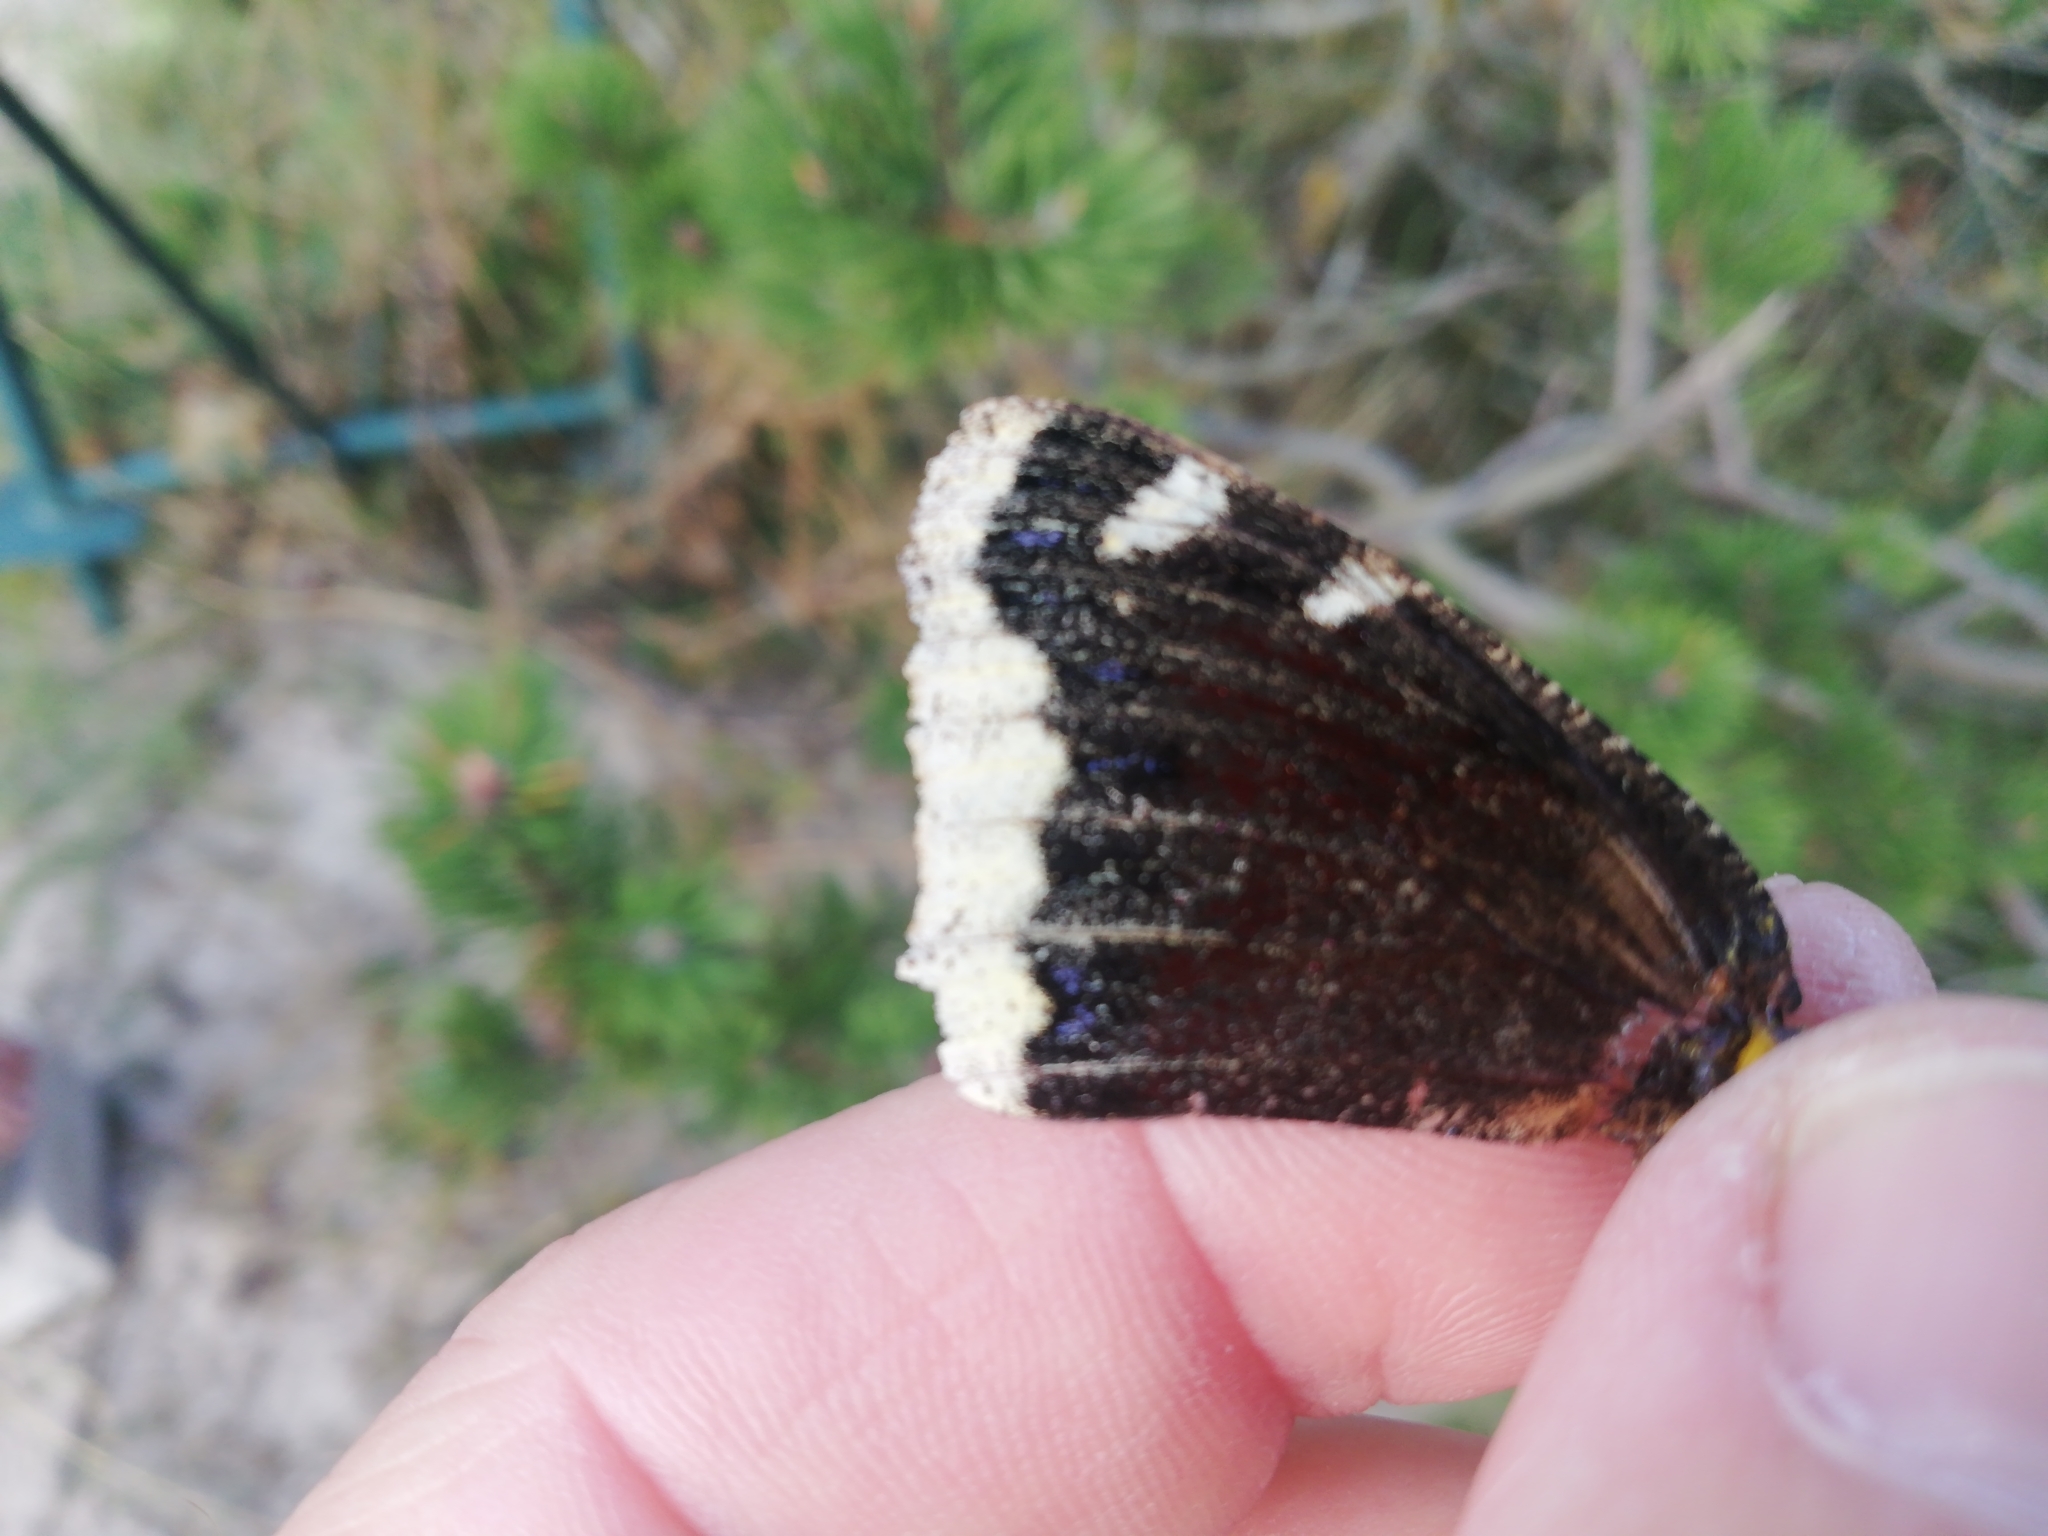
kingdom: Animalia
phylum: Arthropoda
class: Insecta
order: Lepidoptera
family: Nymphalidae
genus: Nymphalis
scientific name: Nymphalis antiopa
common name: Camberwell beauty
